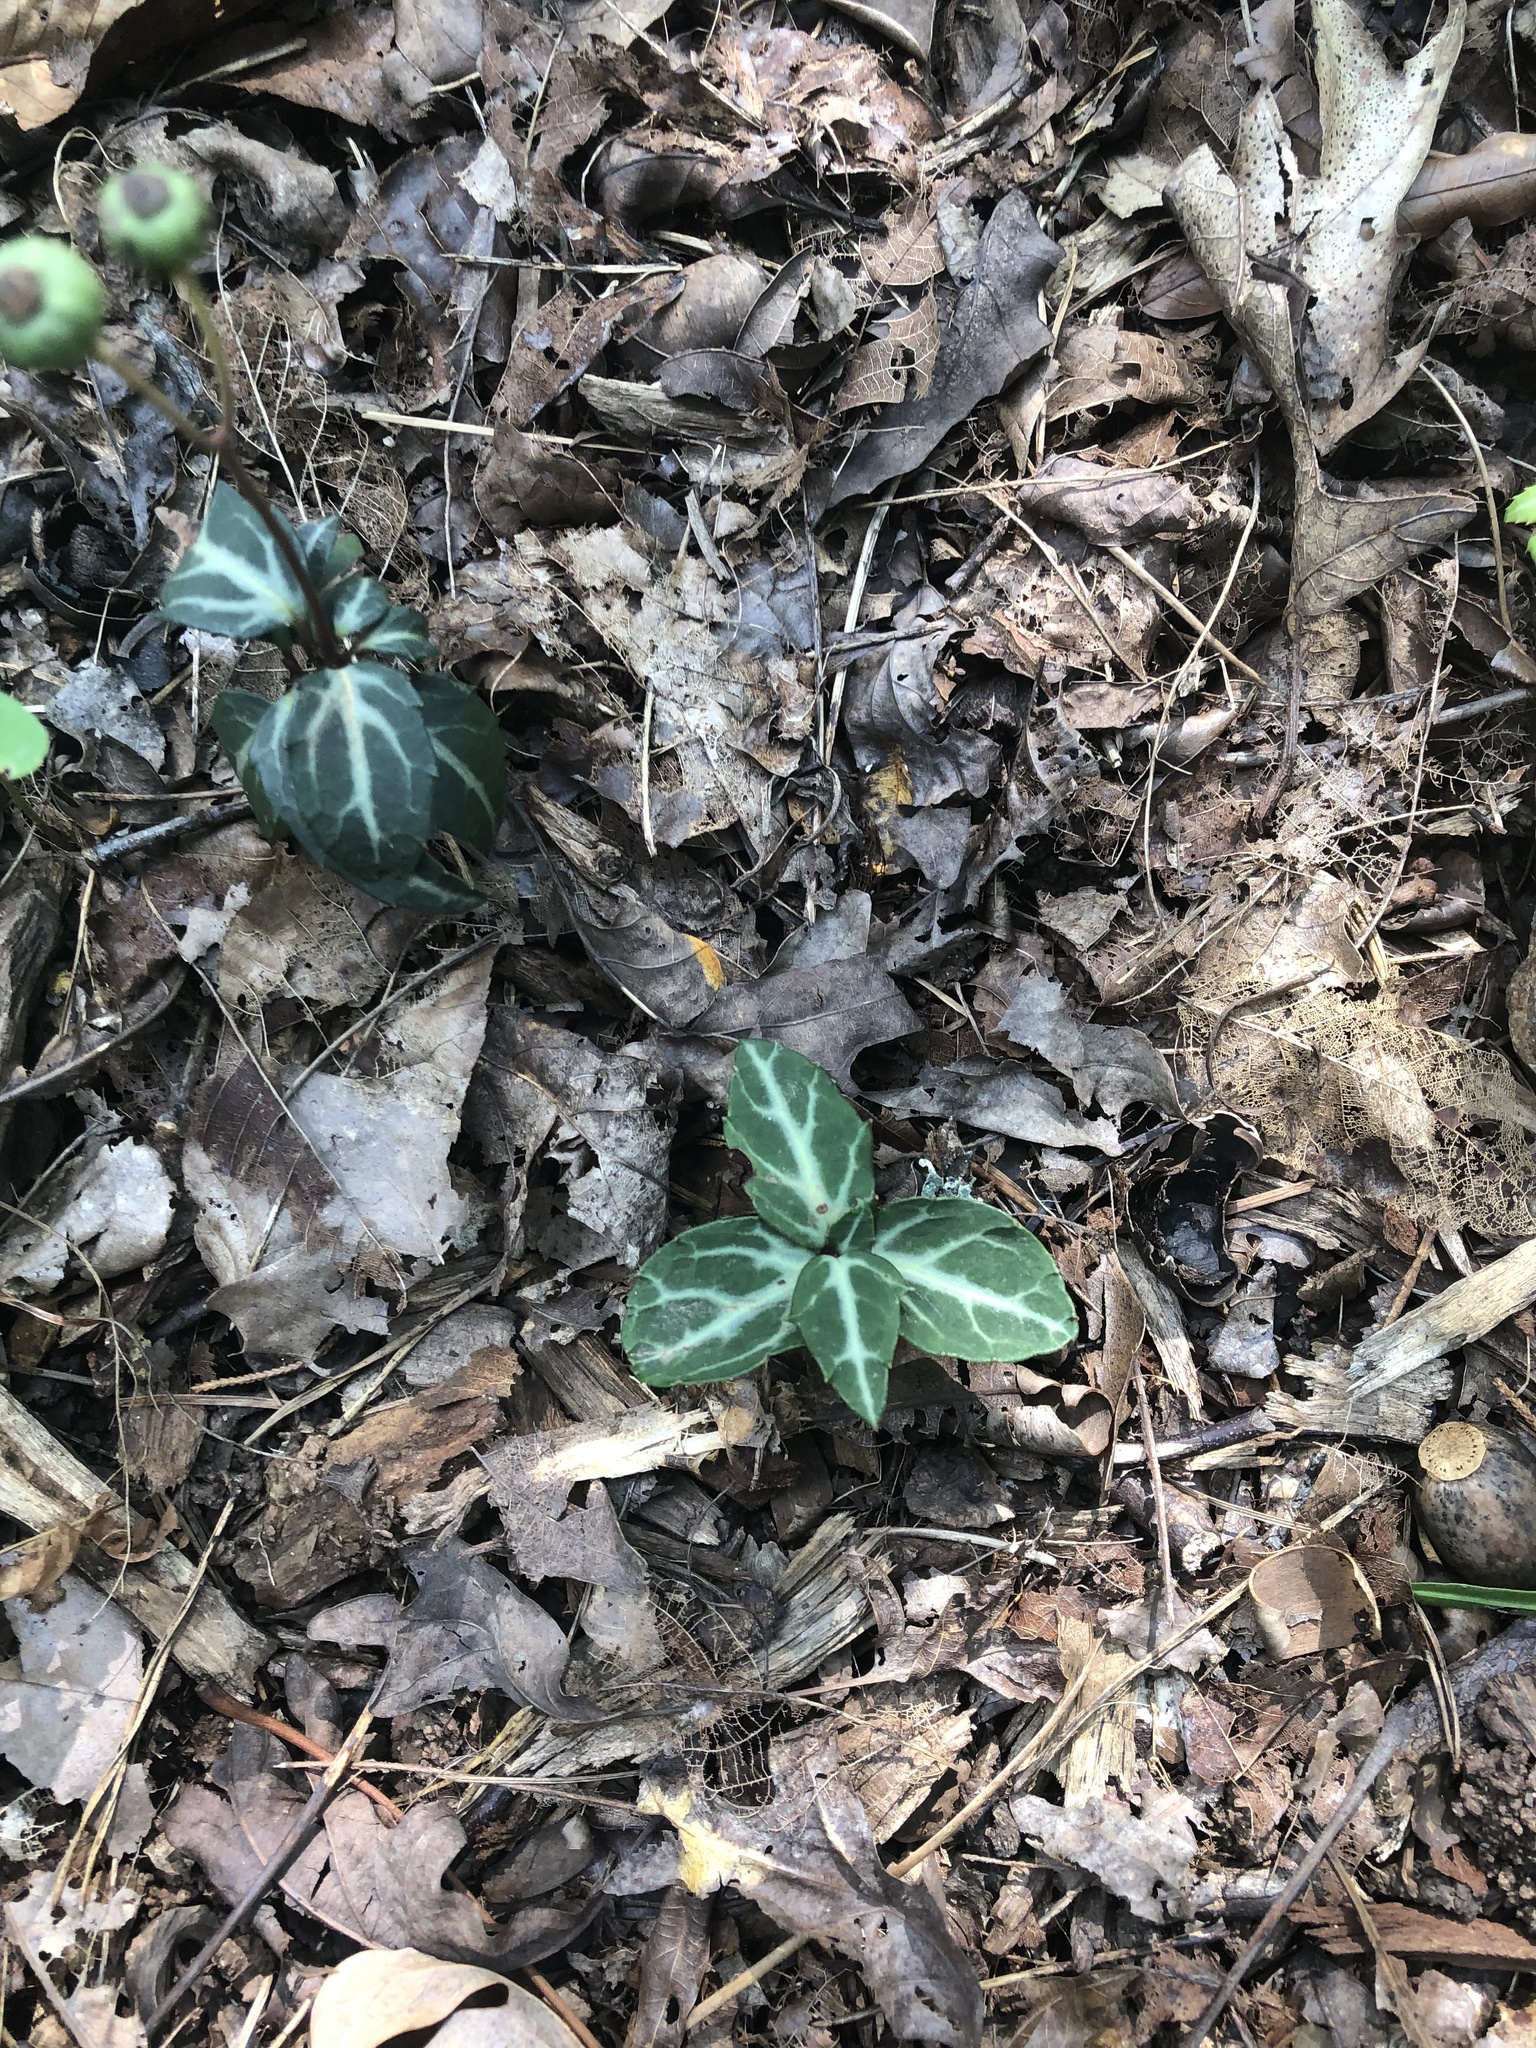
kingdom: Plantae
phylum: Tracheophyta
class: Magnoliopsida
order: Ericales
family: Ericaceae
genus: Chimaphila
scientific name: Chimaphila maculata
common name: Spotted pipsissewa
